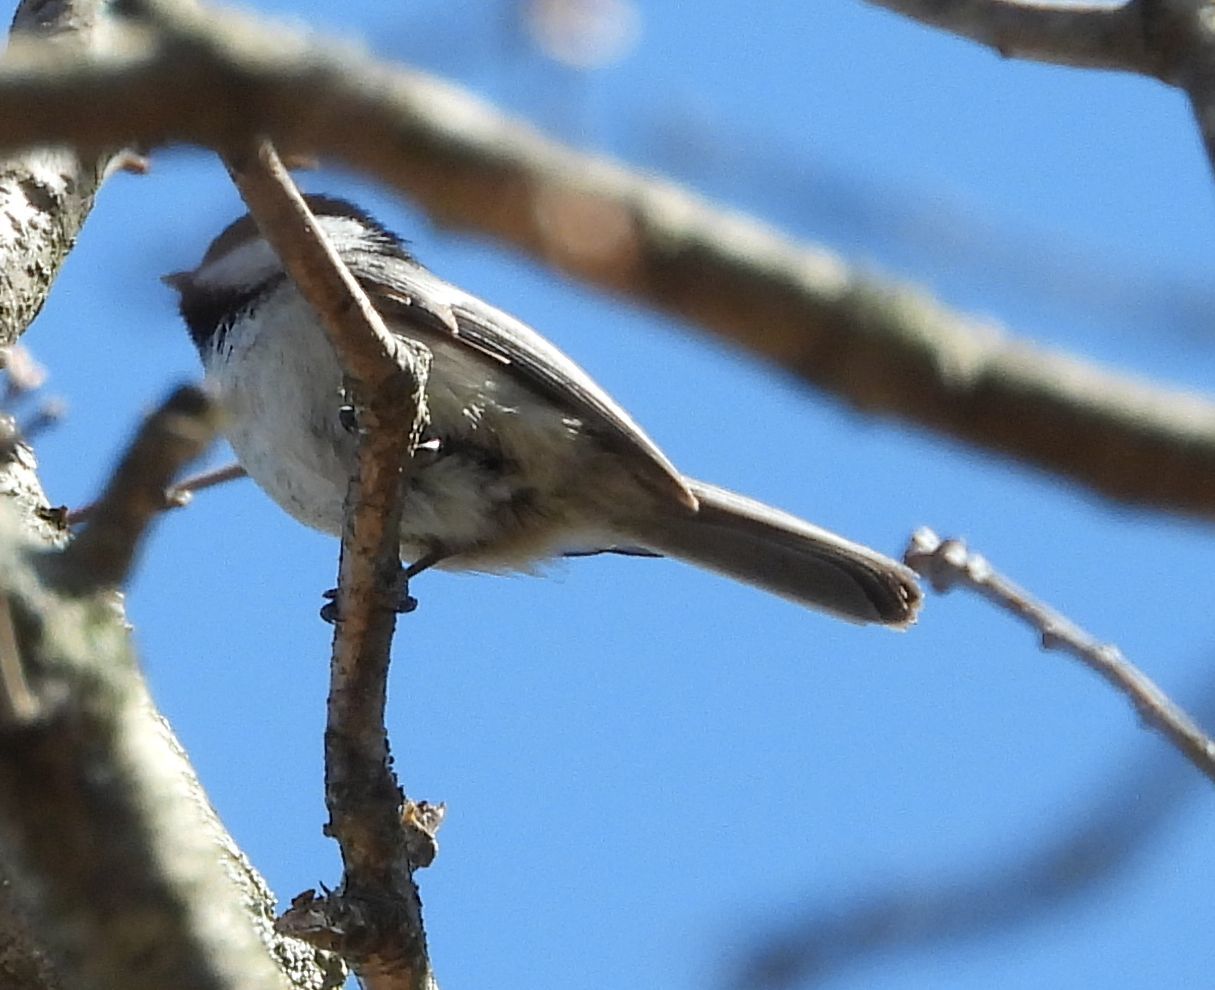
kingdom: Animalia
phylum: Chordata
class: Aves
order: Passeriformes
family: Paridae
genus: Poecile
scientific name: Poecile atricapillus
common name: Black-capped chickadee
